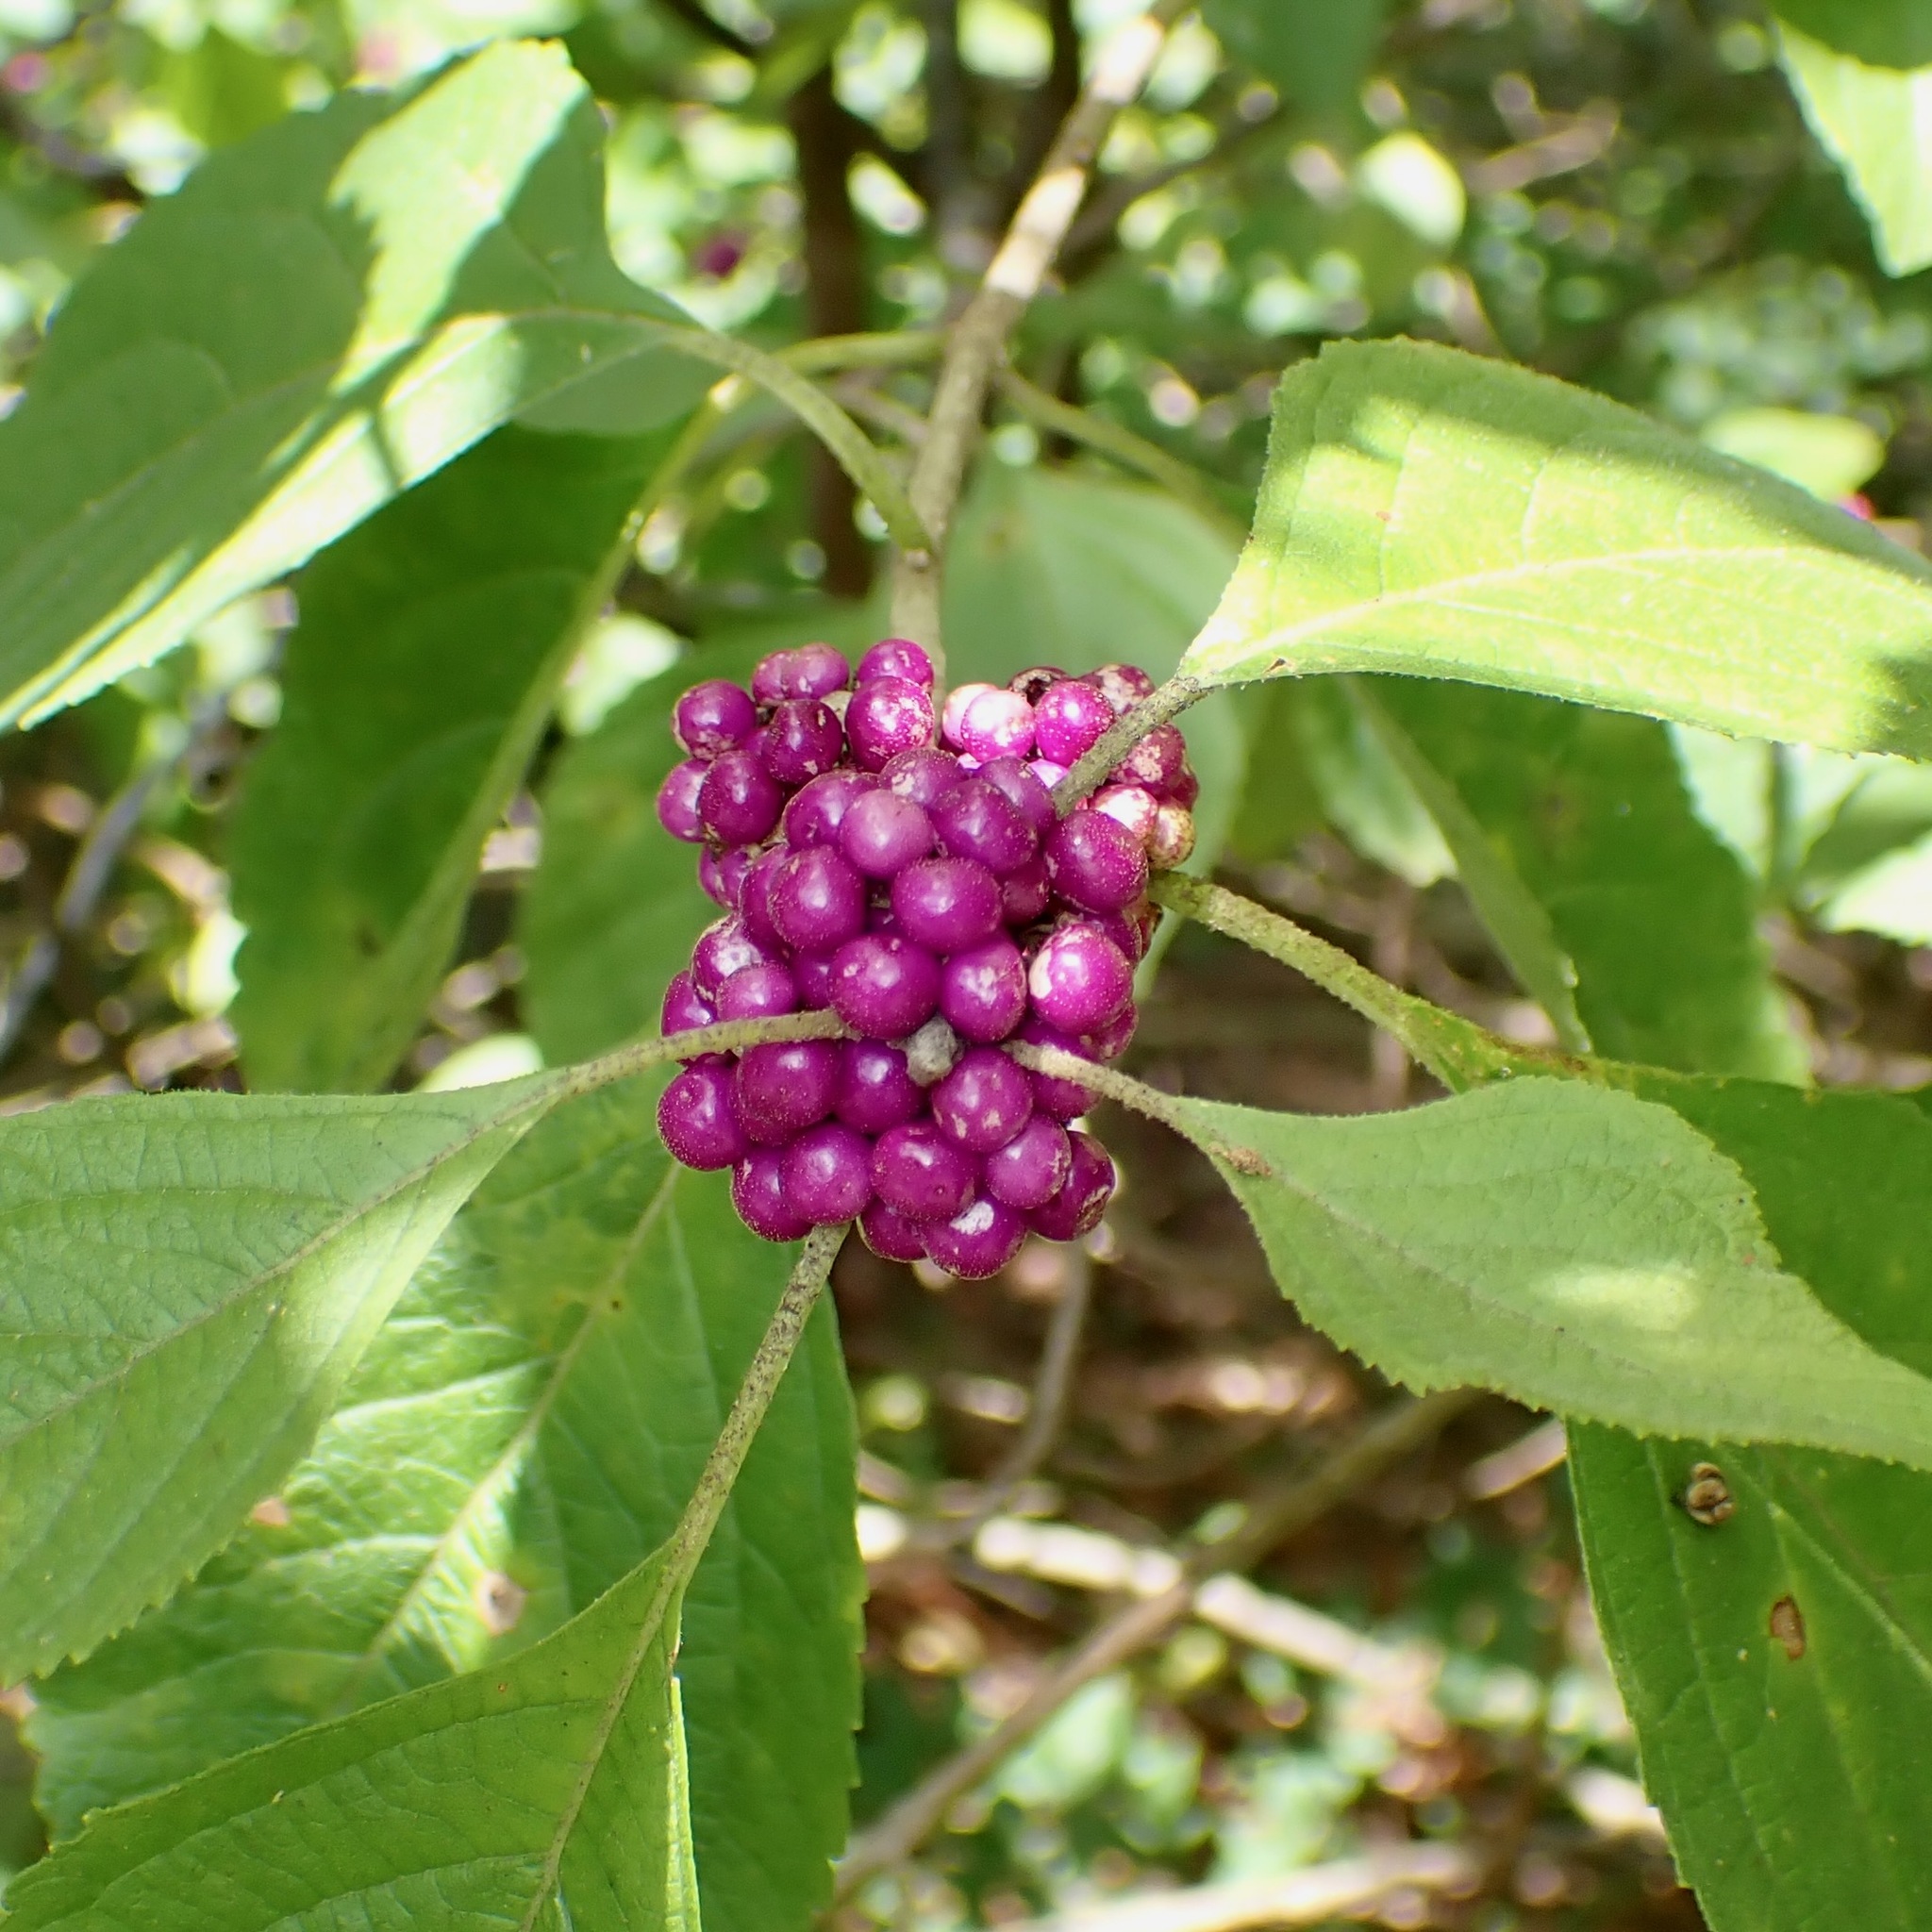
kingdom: Plantae
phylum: Tracheophyta
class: Magnoliopsida
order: Lamiales
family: Lamiaceae
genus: Callicarpa
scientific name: Callicarpa americana
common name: American beautyberry
